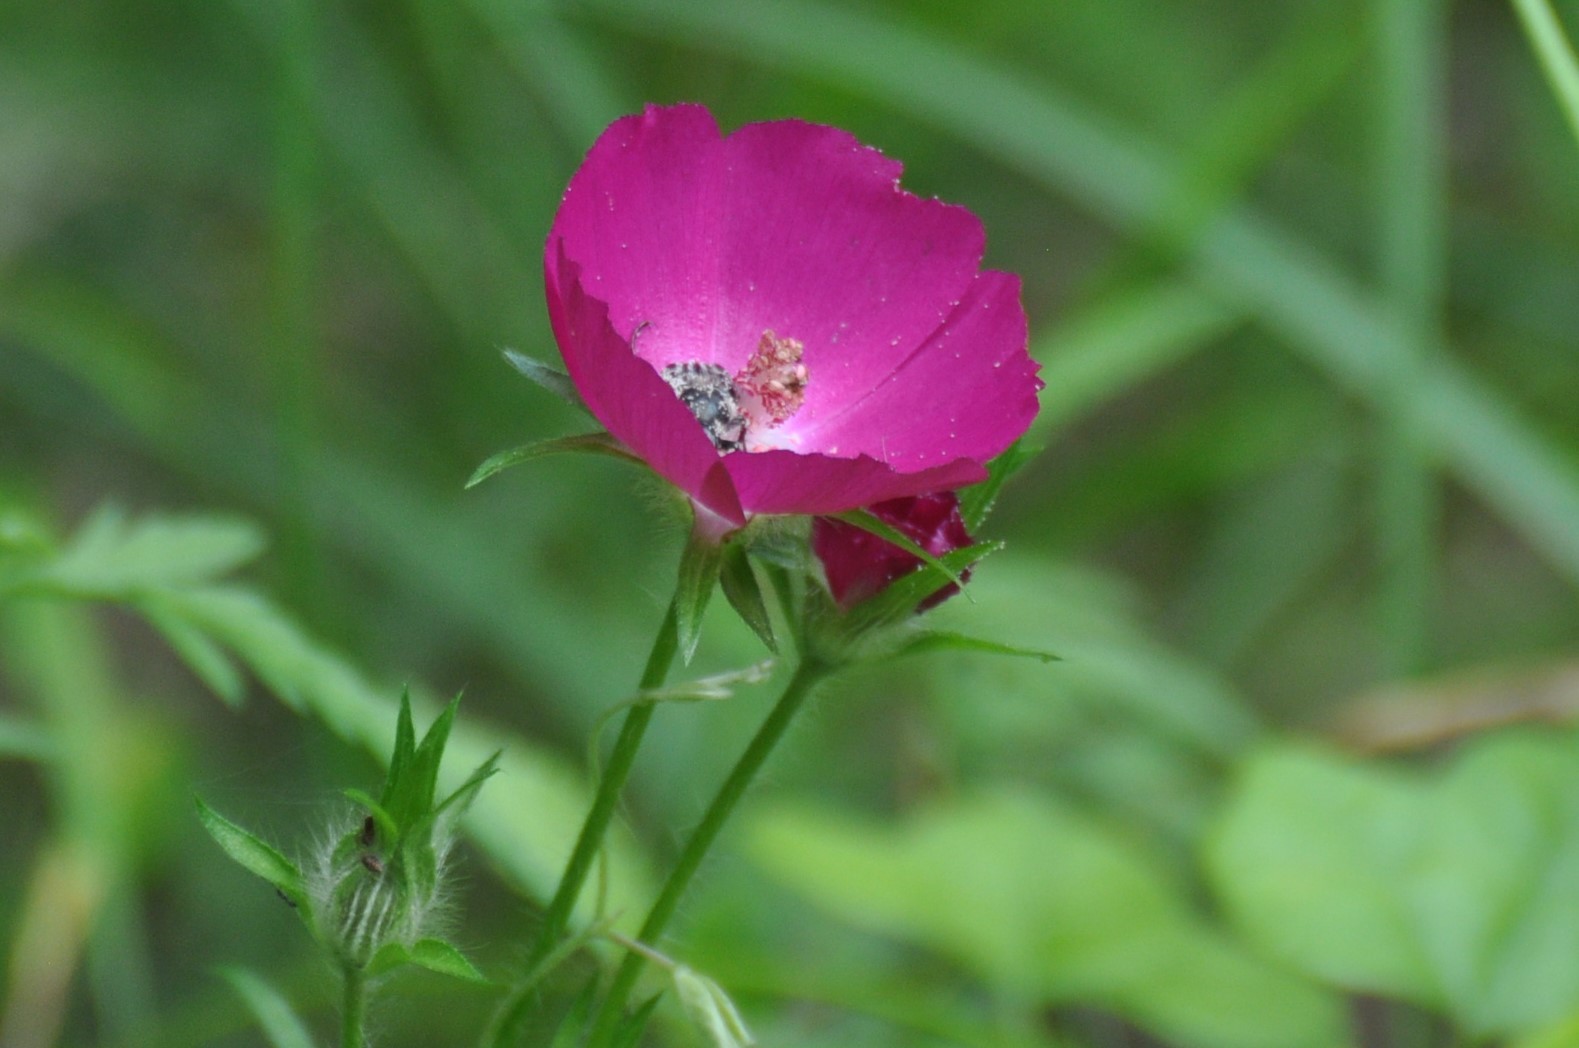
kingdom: Plantae
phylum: Tracheophyta
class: Magnoliopsida
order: Malvales
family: Malvaceae
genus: Callirhoe
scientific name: Callirhoe involucrata
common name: Purple poppy-mallow
